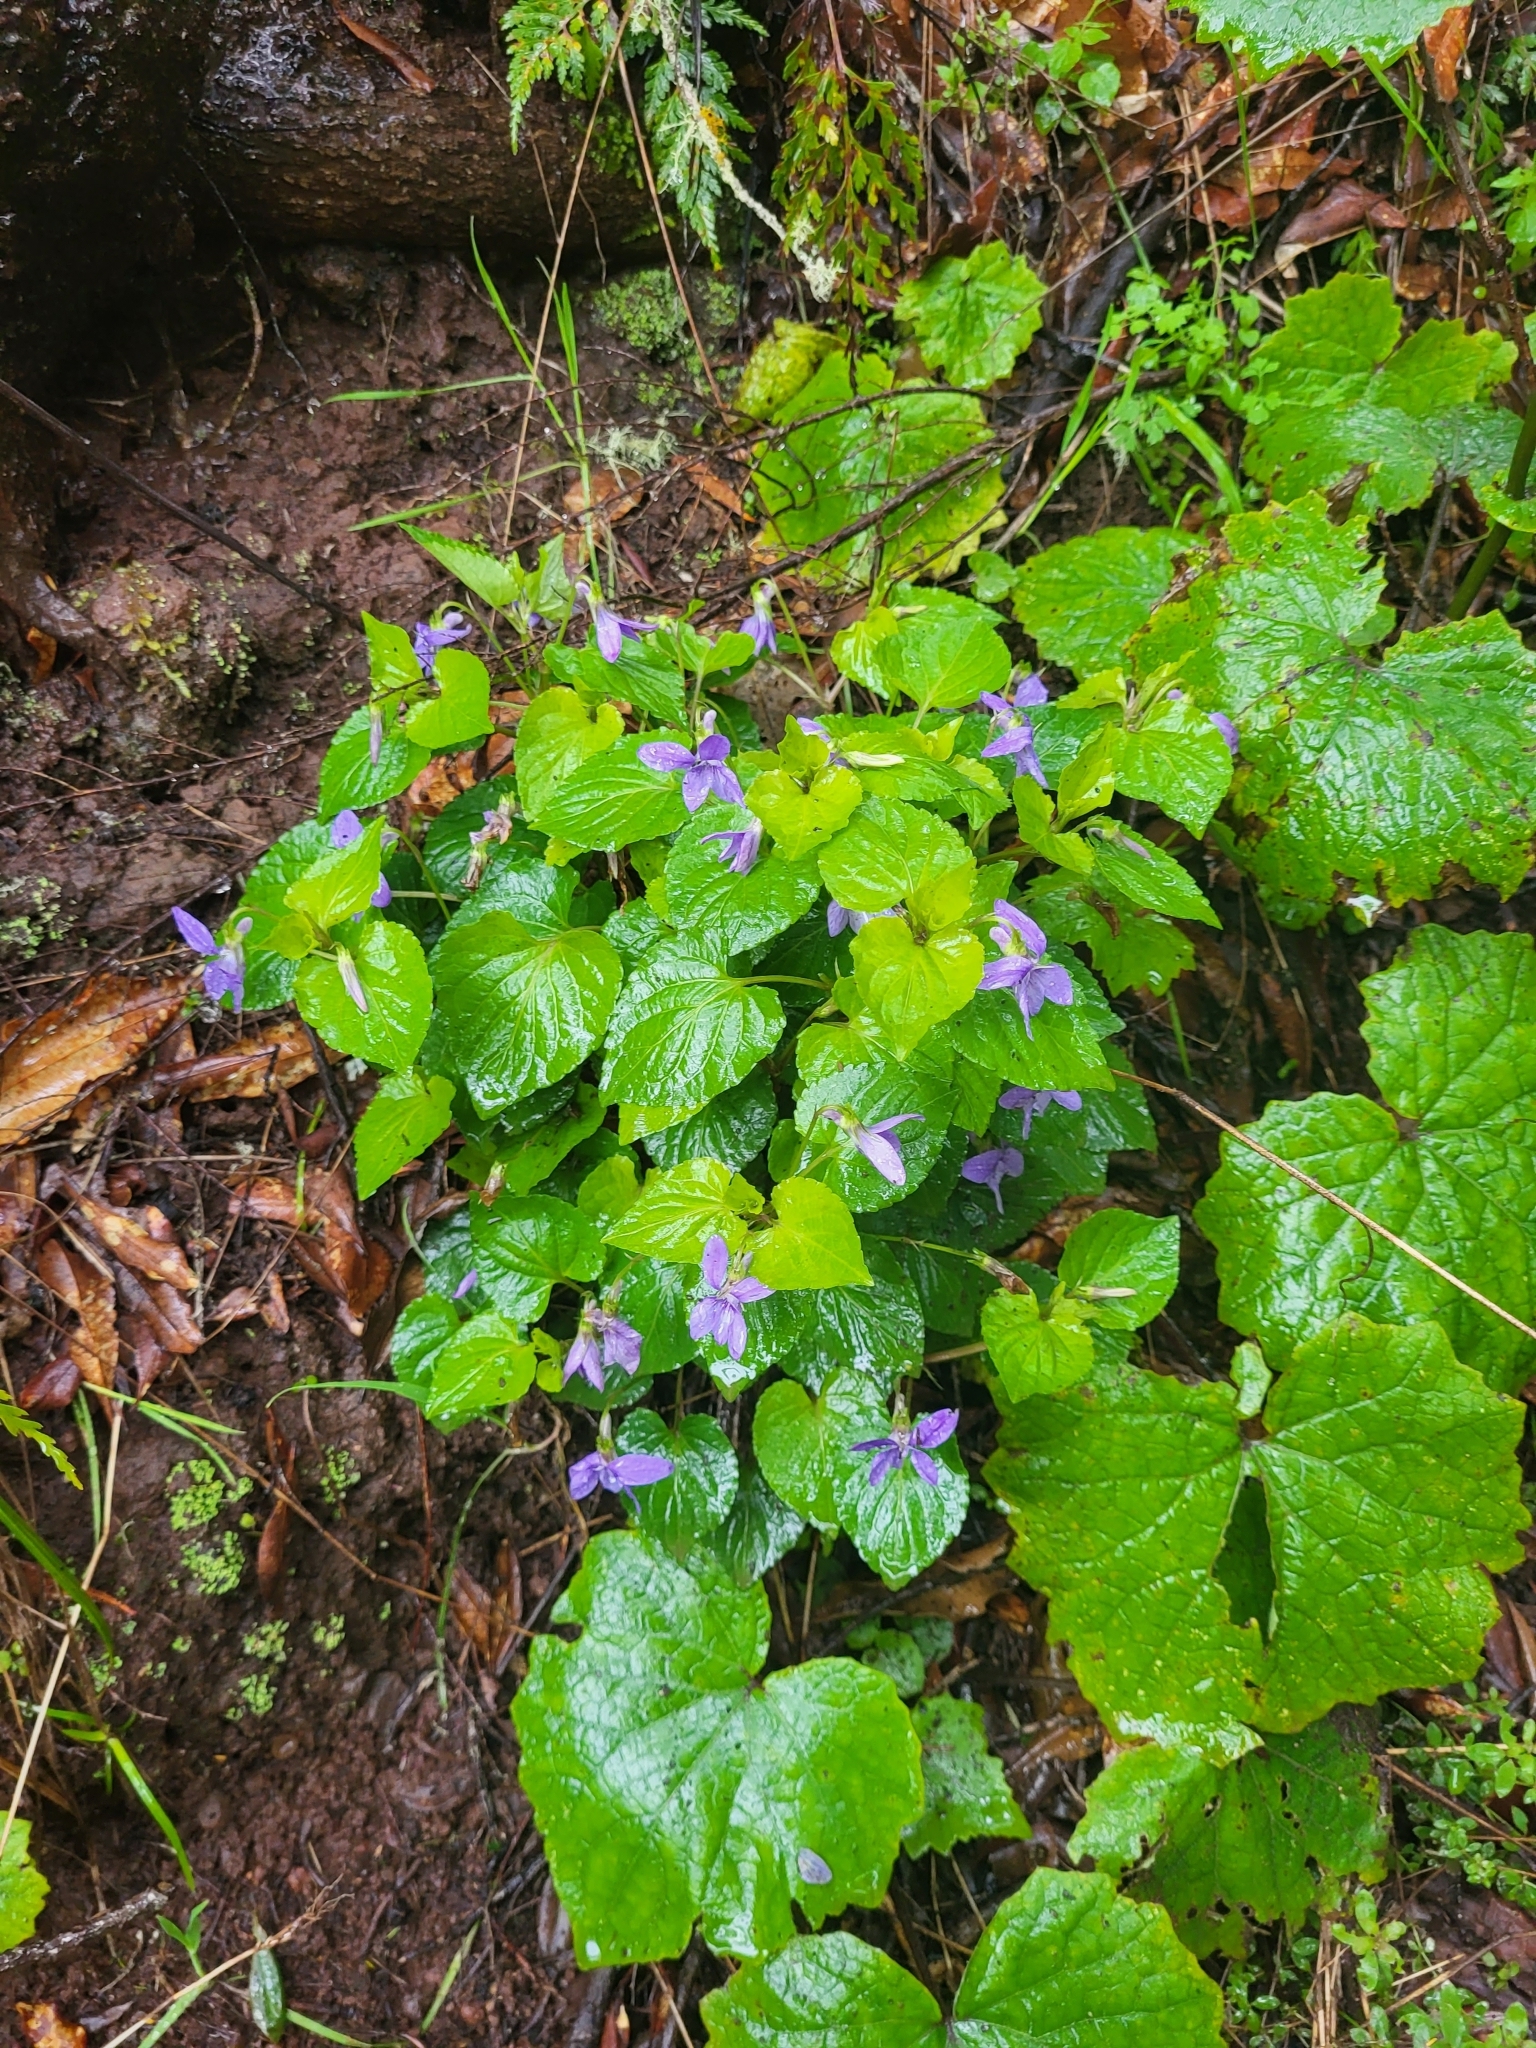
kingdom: Plantae
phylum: Tracheophyta
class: Magnoliopsida
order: Malpighiales
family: Violaceae
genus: Viola
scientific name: Viola riviniana
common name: Common dog-violet
